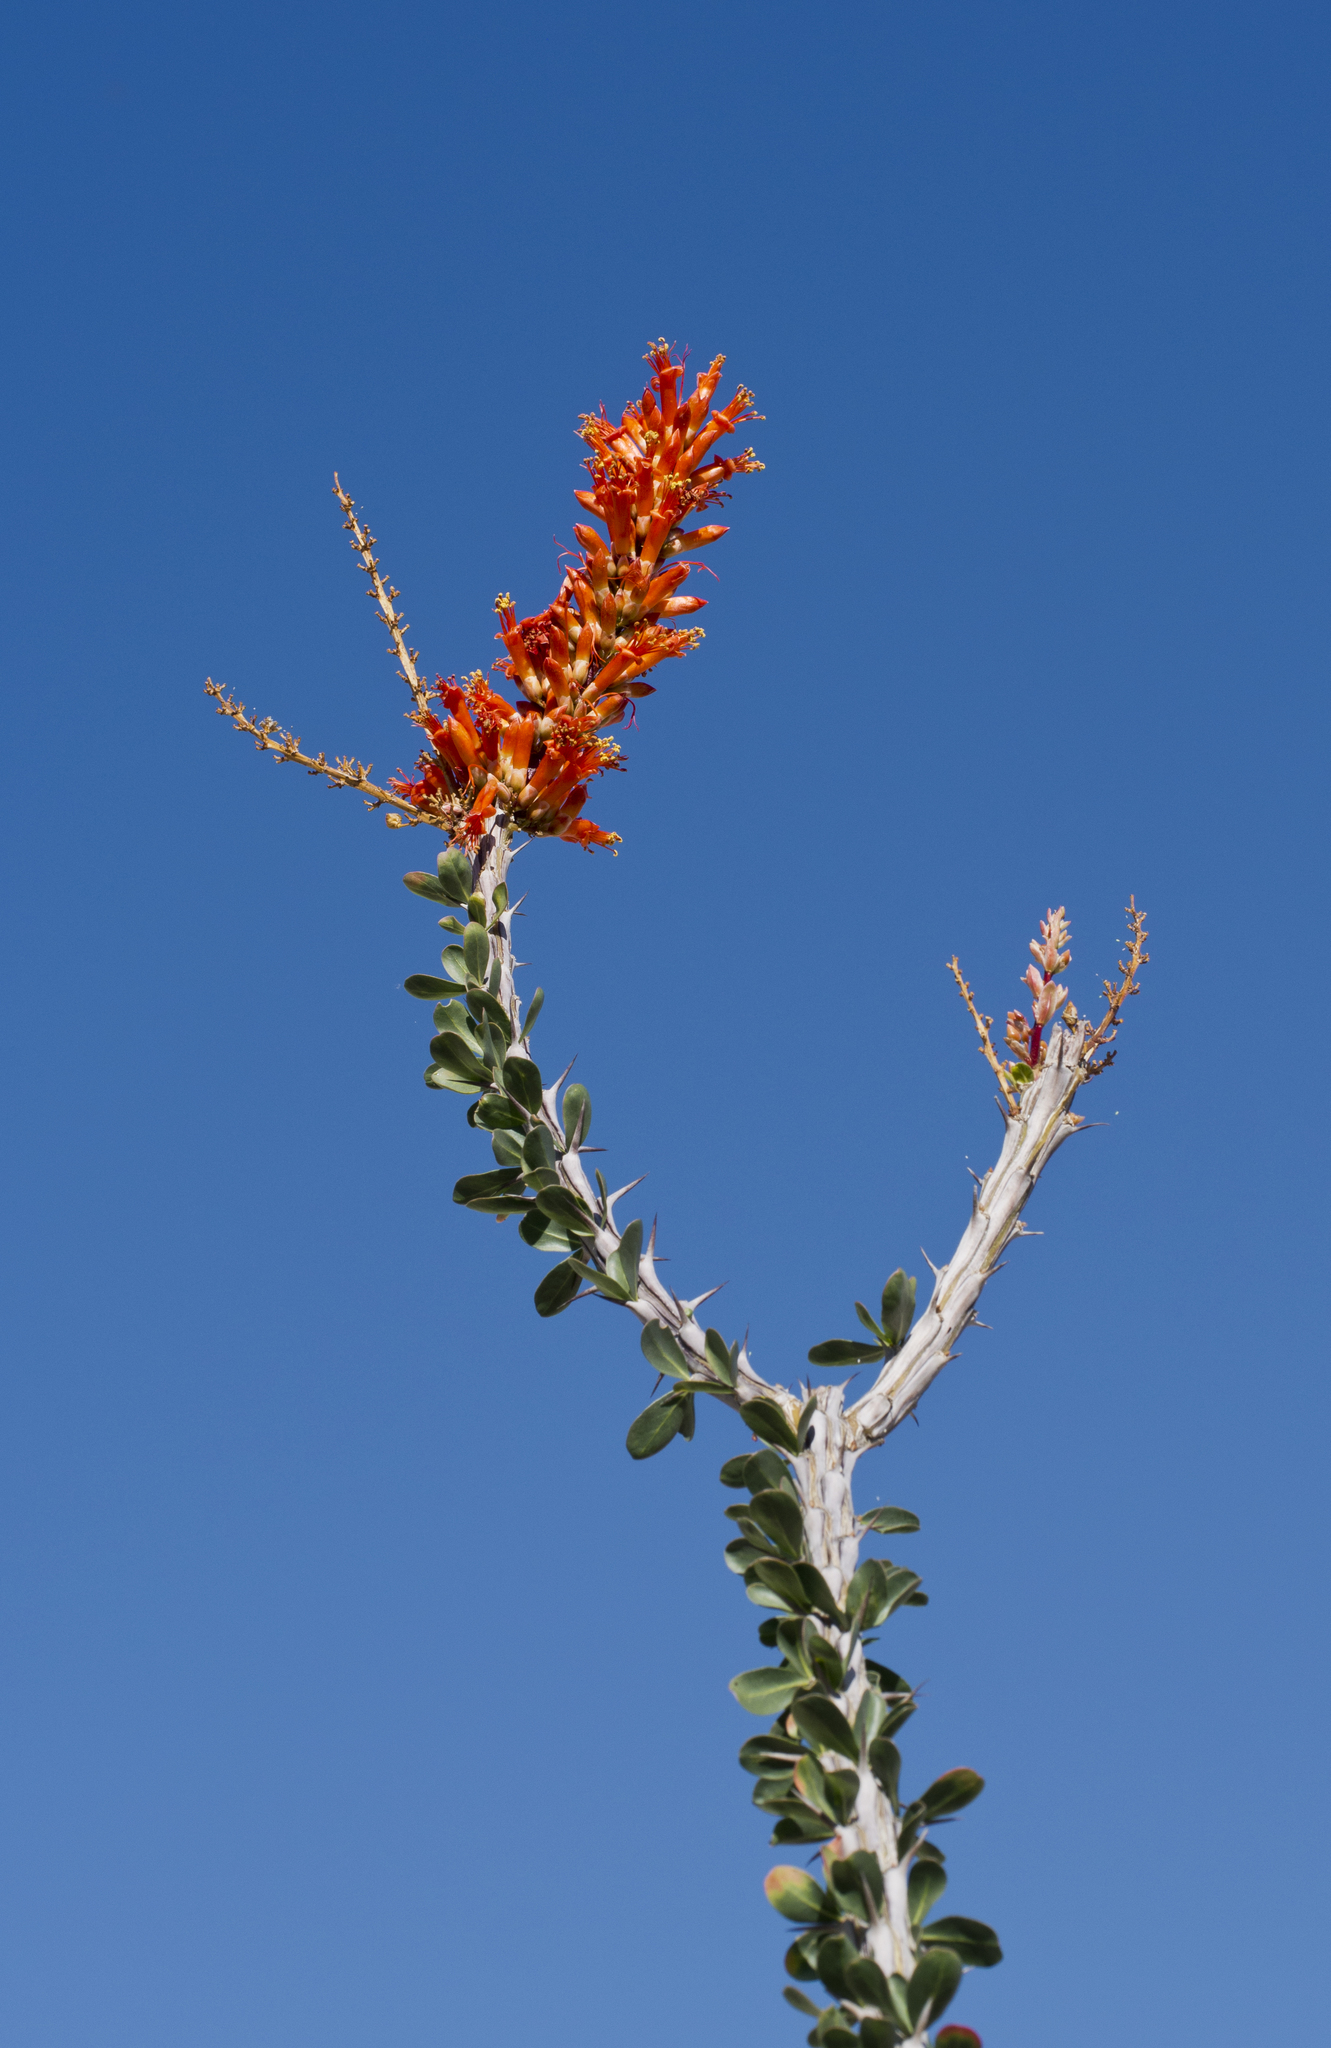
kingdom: Plantae
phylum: Tracheophyta
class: Magnoliopsida
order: Ericales
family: Fouquieriaceae
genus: Fouquieria
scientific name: Fouquieria splendens
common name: Vine-cactus
